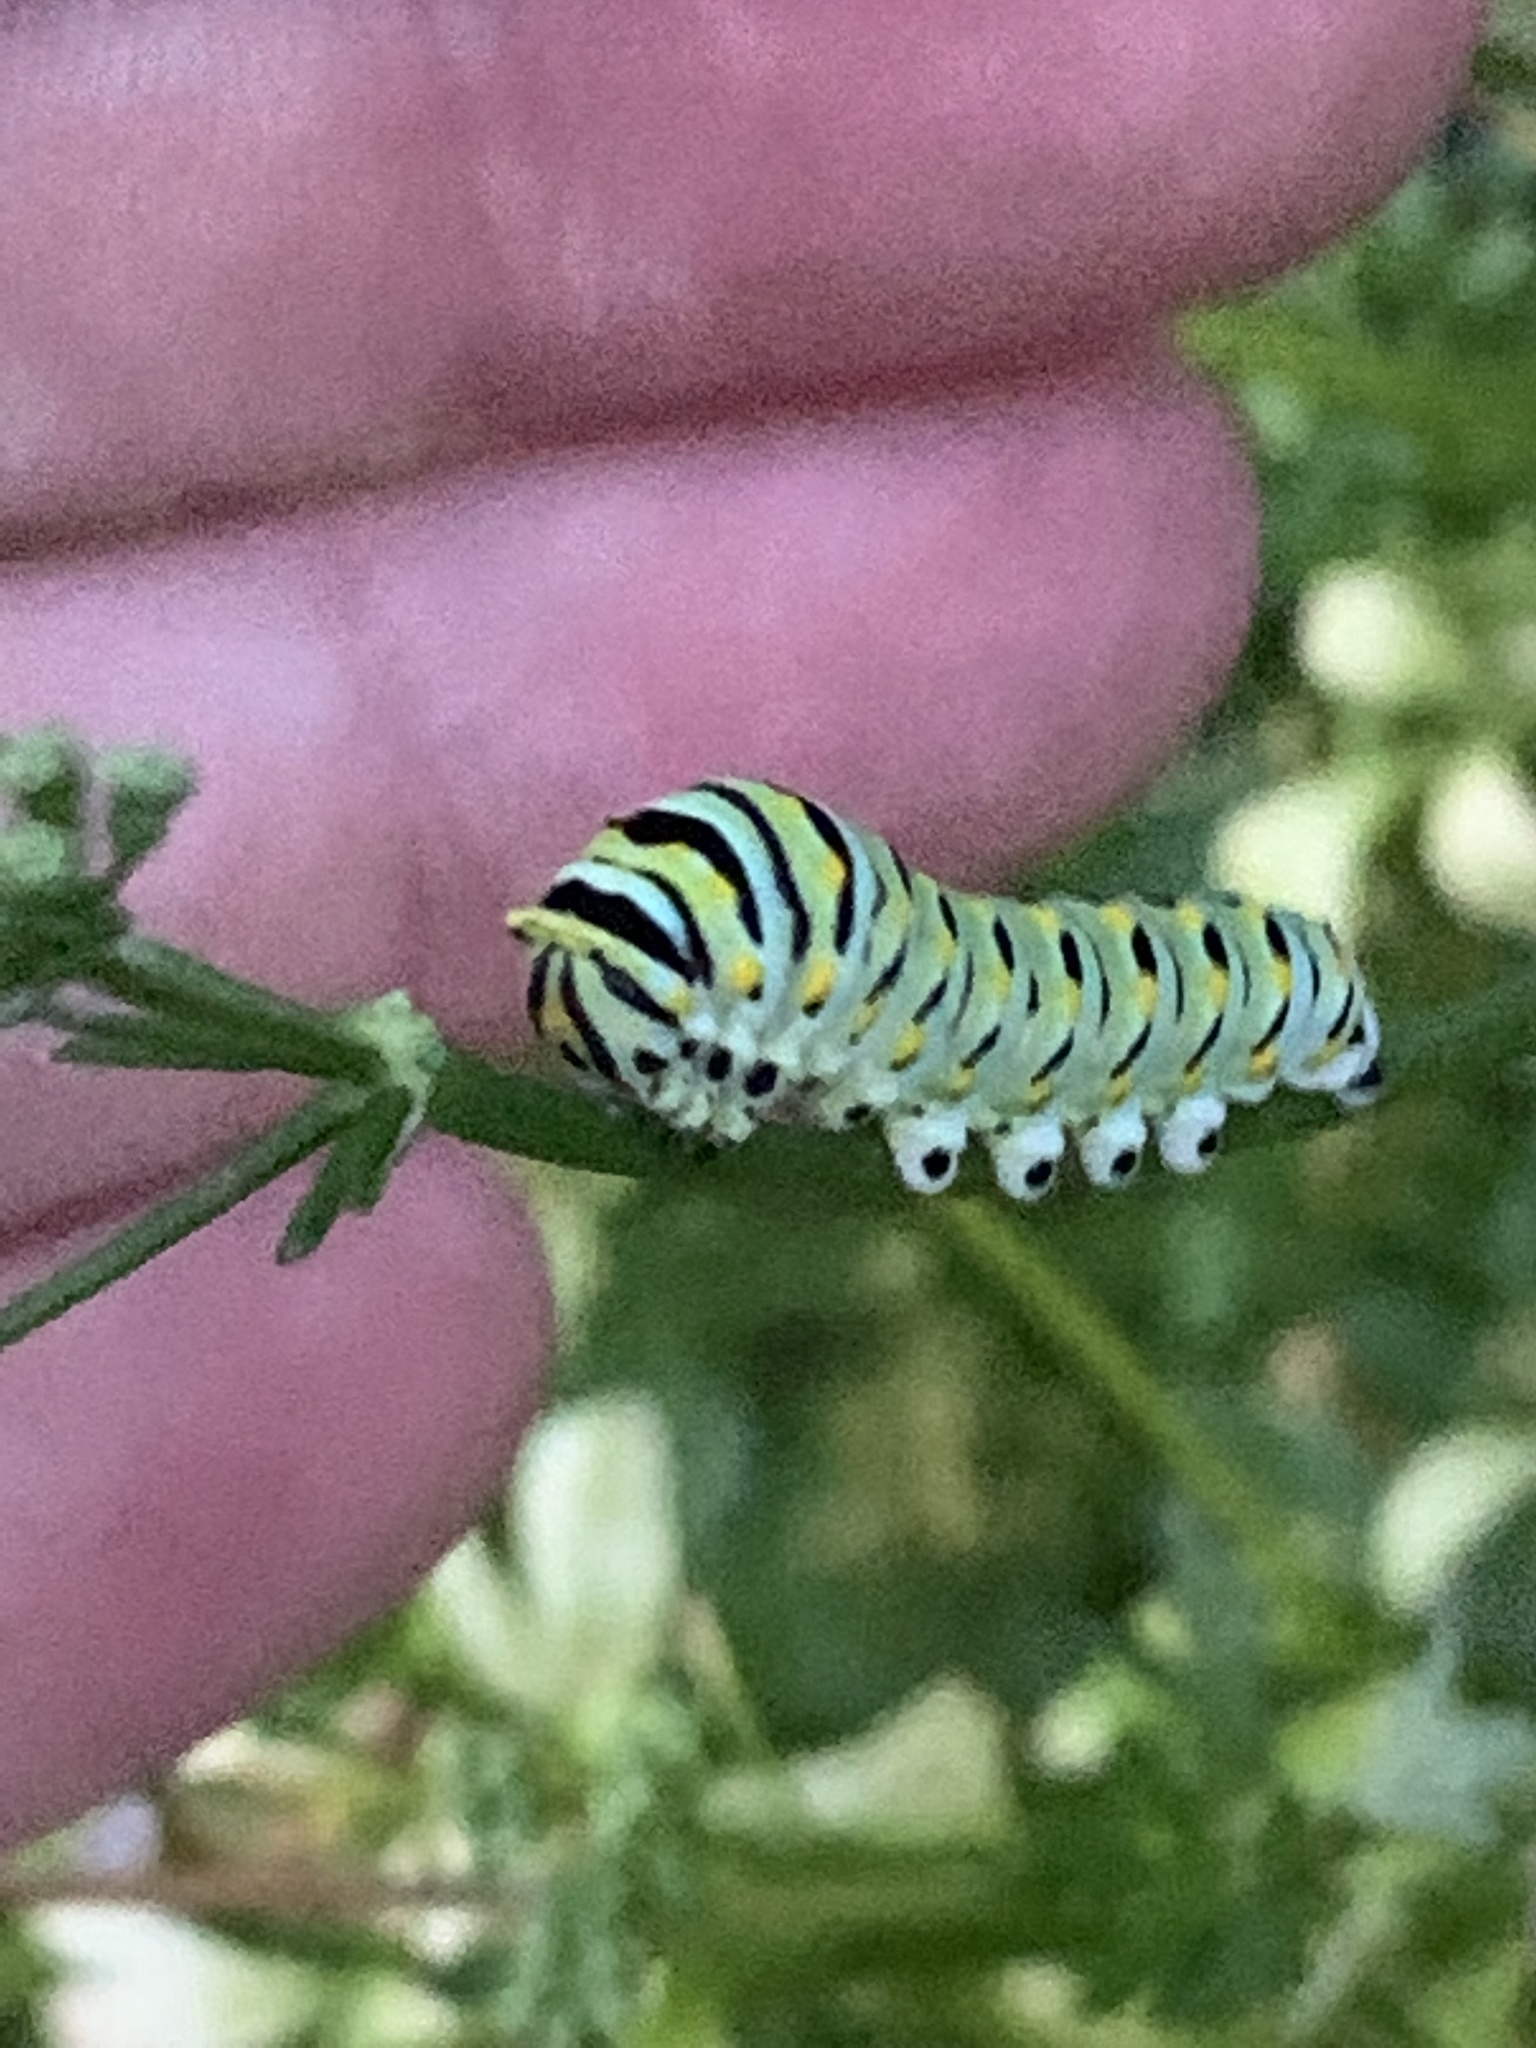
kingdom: Animalia
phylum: Arthropoda
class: Insecta
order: Lepidoptera
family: Papilionidae
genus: Papilio
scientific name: Papilio polyxenes
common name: Black swallowtail
